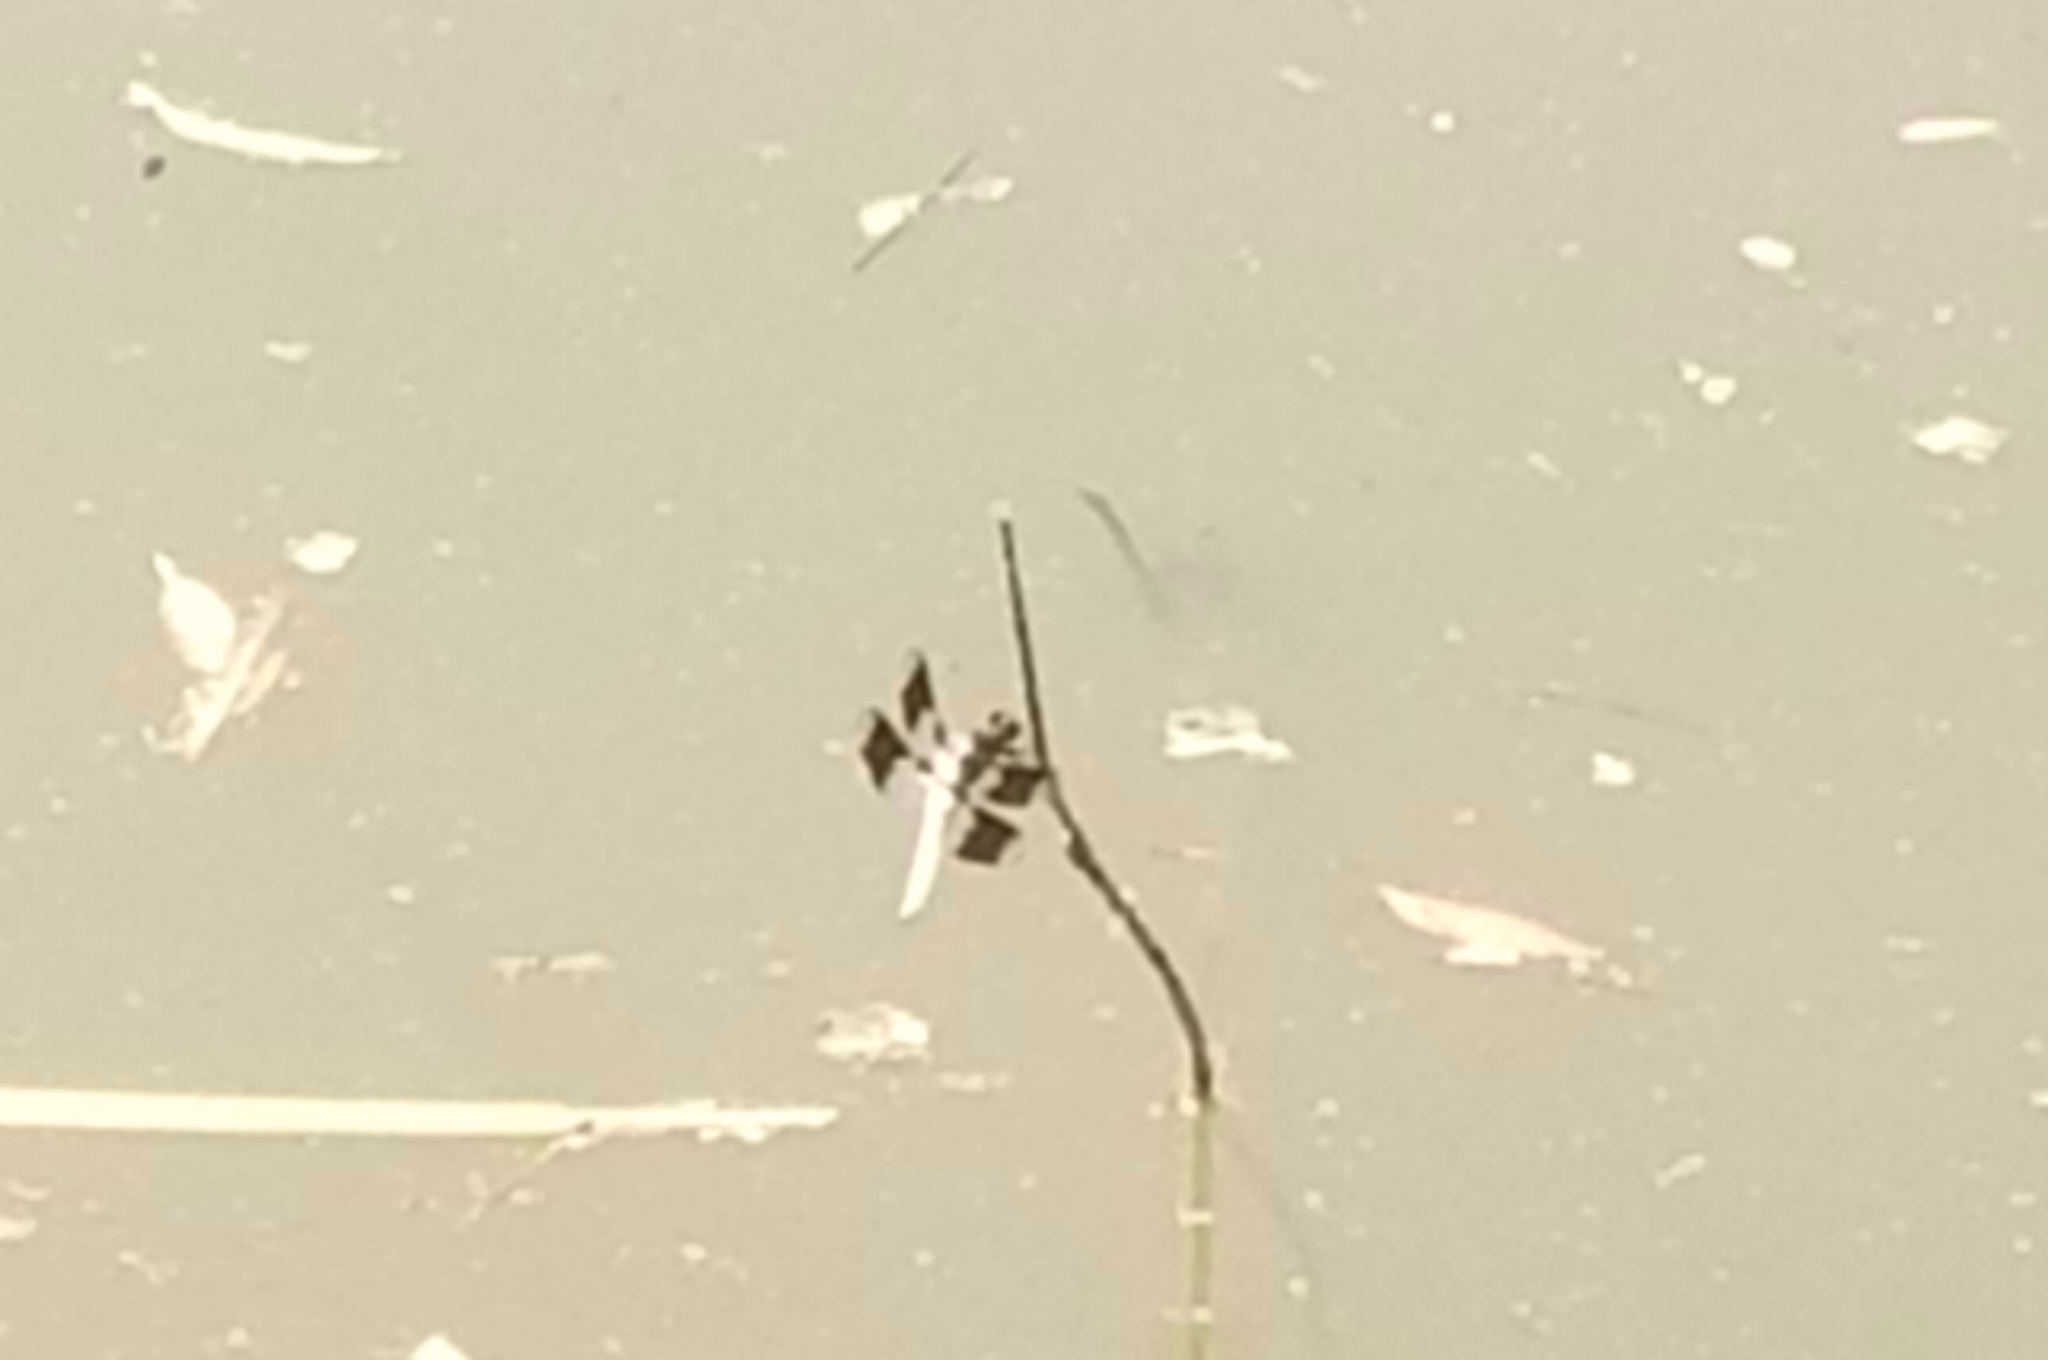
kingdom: Animalia
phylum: Arthropoda
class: Insecta
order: Odonata
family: Libellulidae
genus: Plathemis
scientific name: Plathemis lydia
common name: Common whitetail
